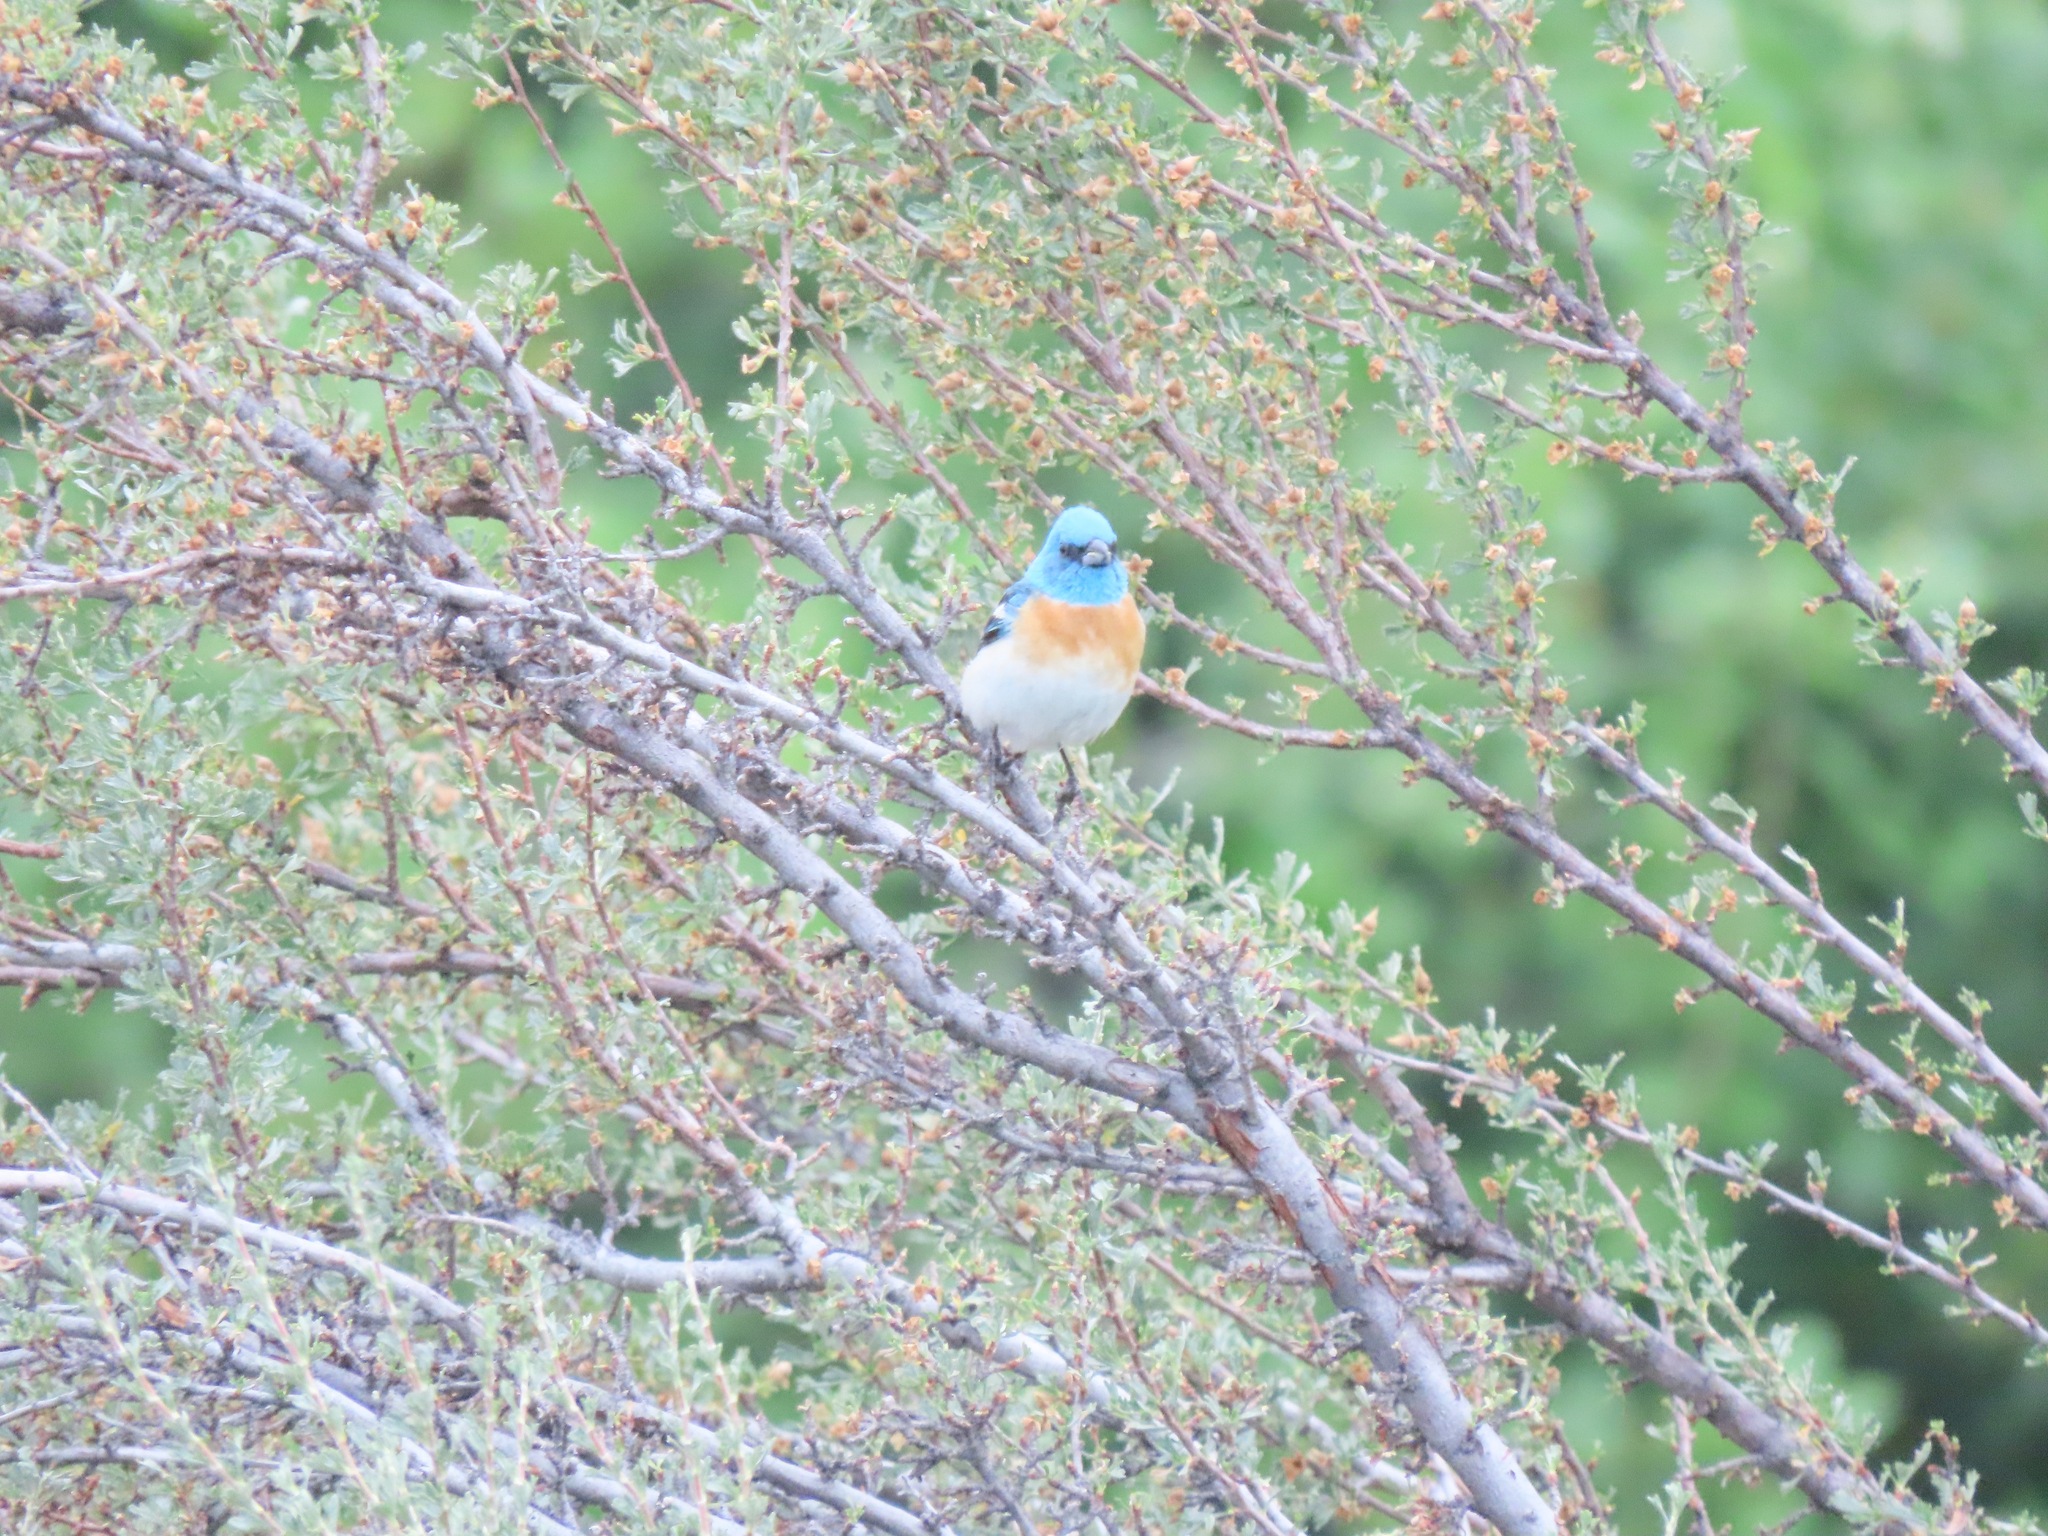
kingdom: Animalia
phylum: Chordata
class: Aves
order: Passeriformes
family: Cardinalidae
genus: Passerina
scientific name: Passerina amoena
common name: Lazuli bunting
